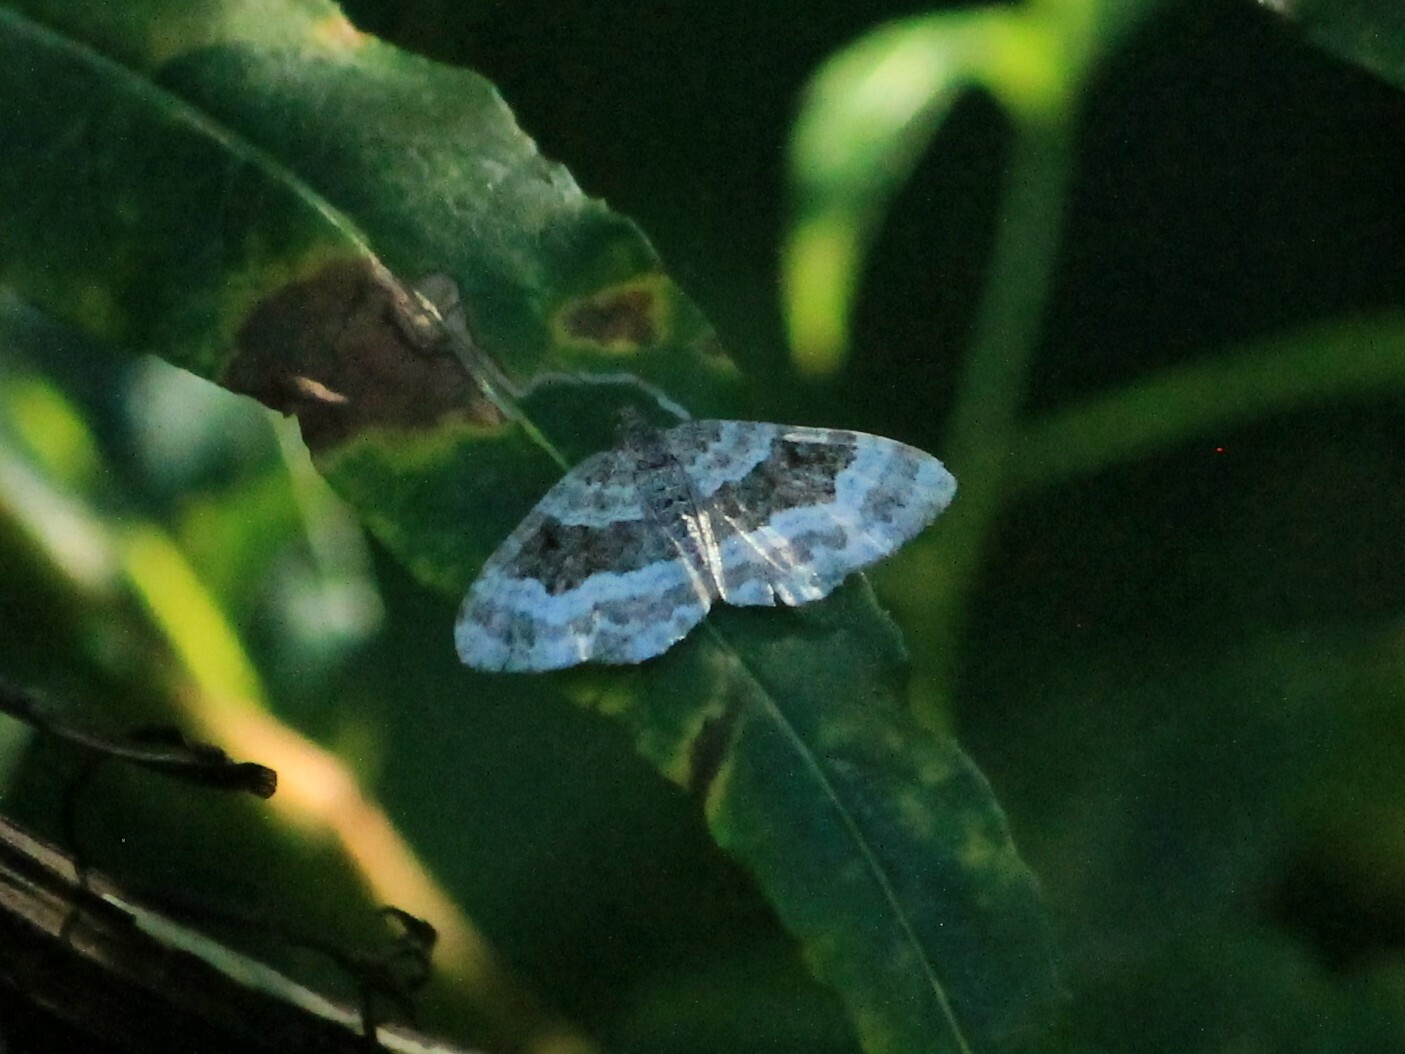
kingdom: Animalia
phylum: Arthropoda
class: Insecta
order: Lepidoptera
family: Geometridae
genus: Epirrhoe
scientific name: Epirrhoe alternata
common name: Common carpet
